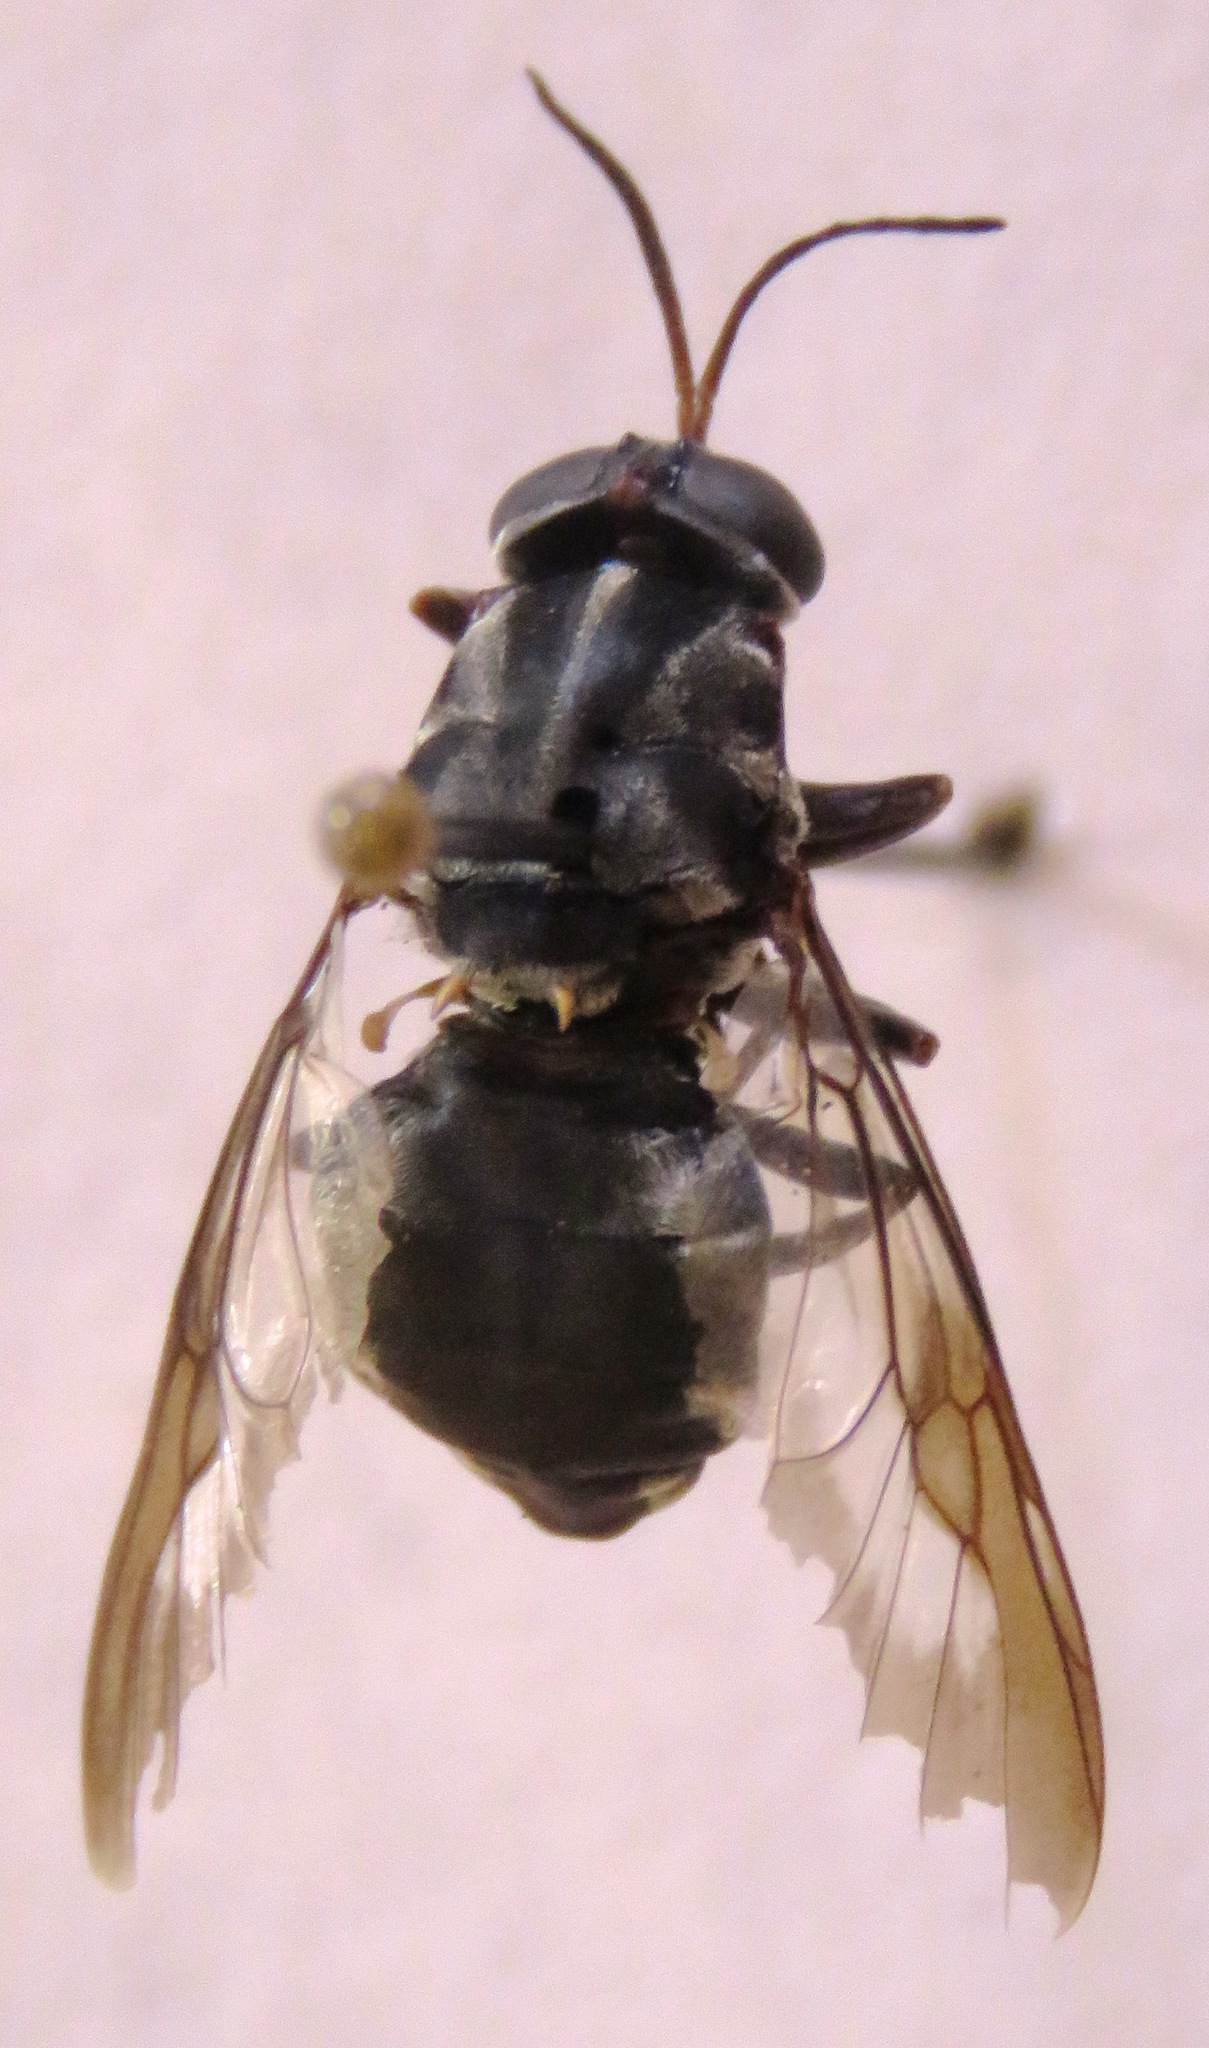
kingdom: Animalia
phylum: Arthropoda
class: Insecta
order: Diptera
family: Stratiomyidae
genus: Cyphomyia
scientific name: Cyphomyia albitarsis
